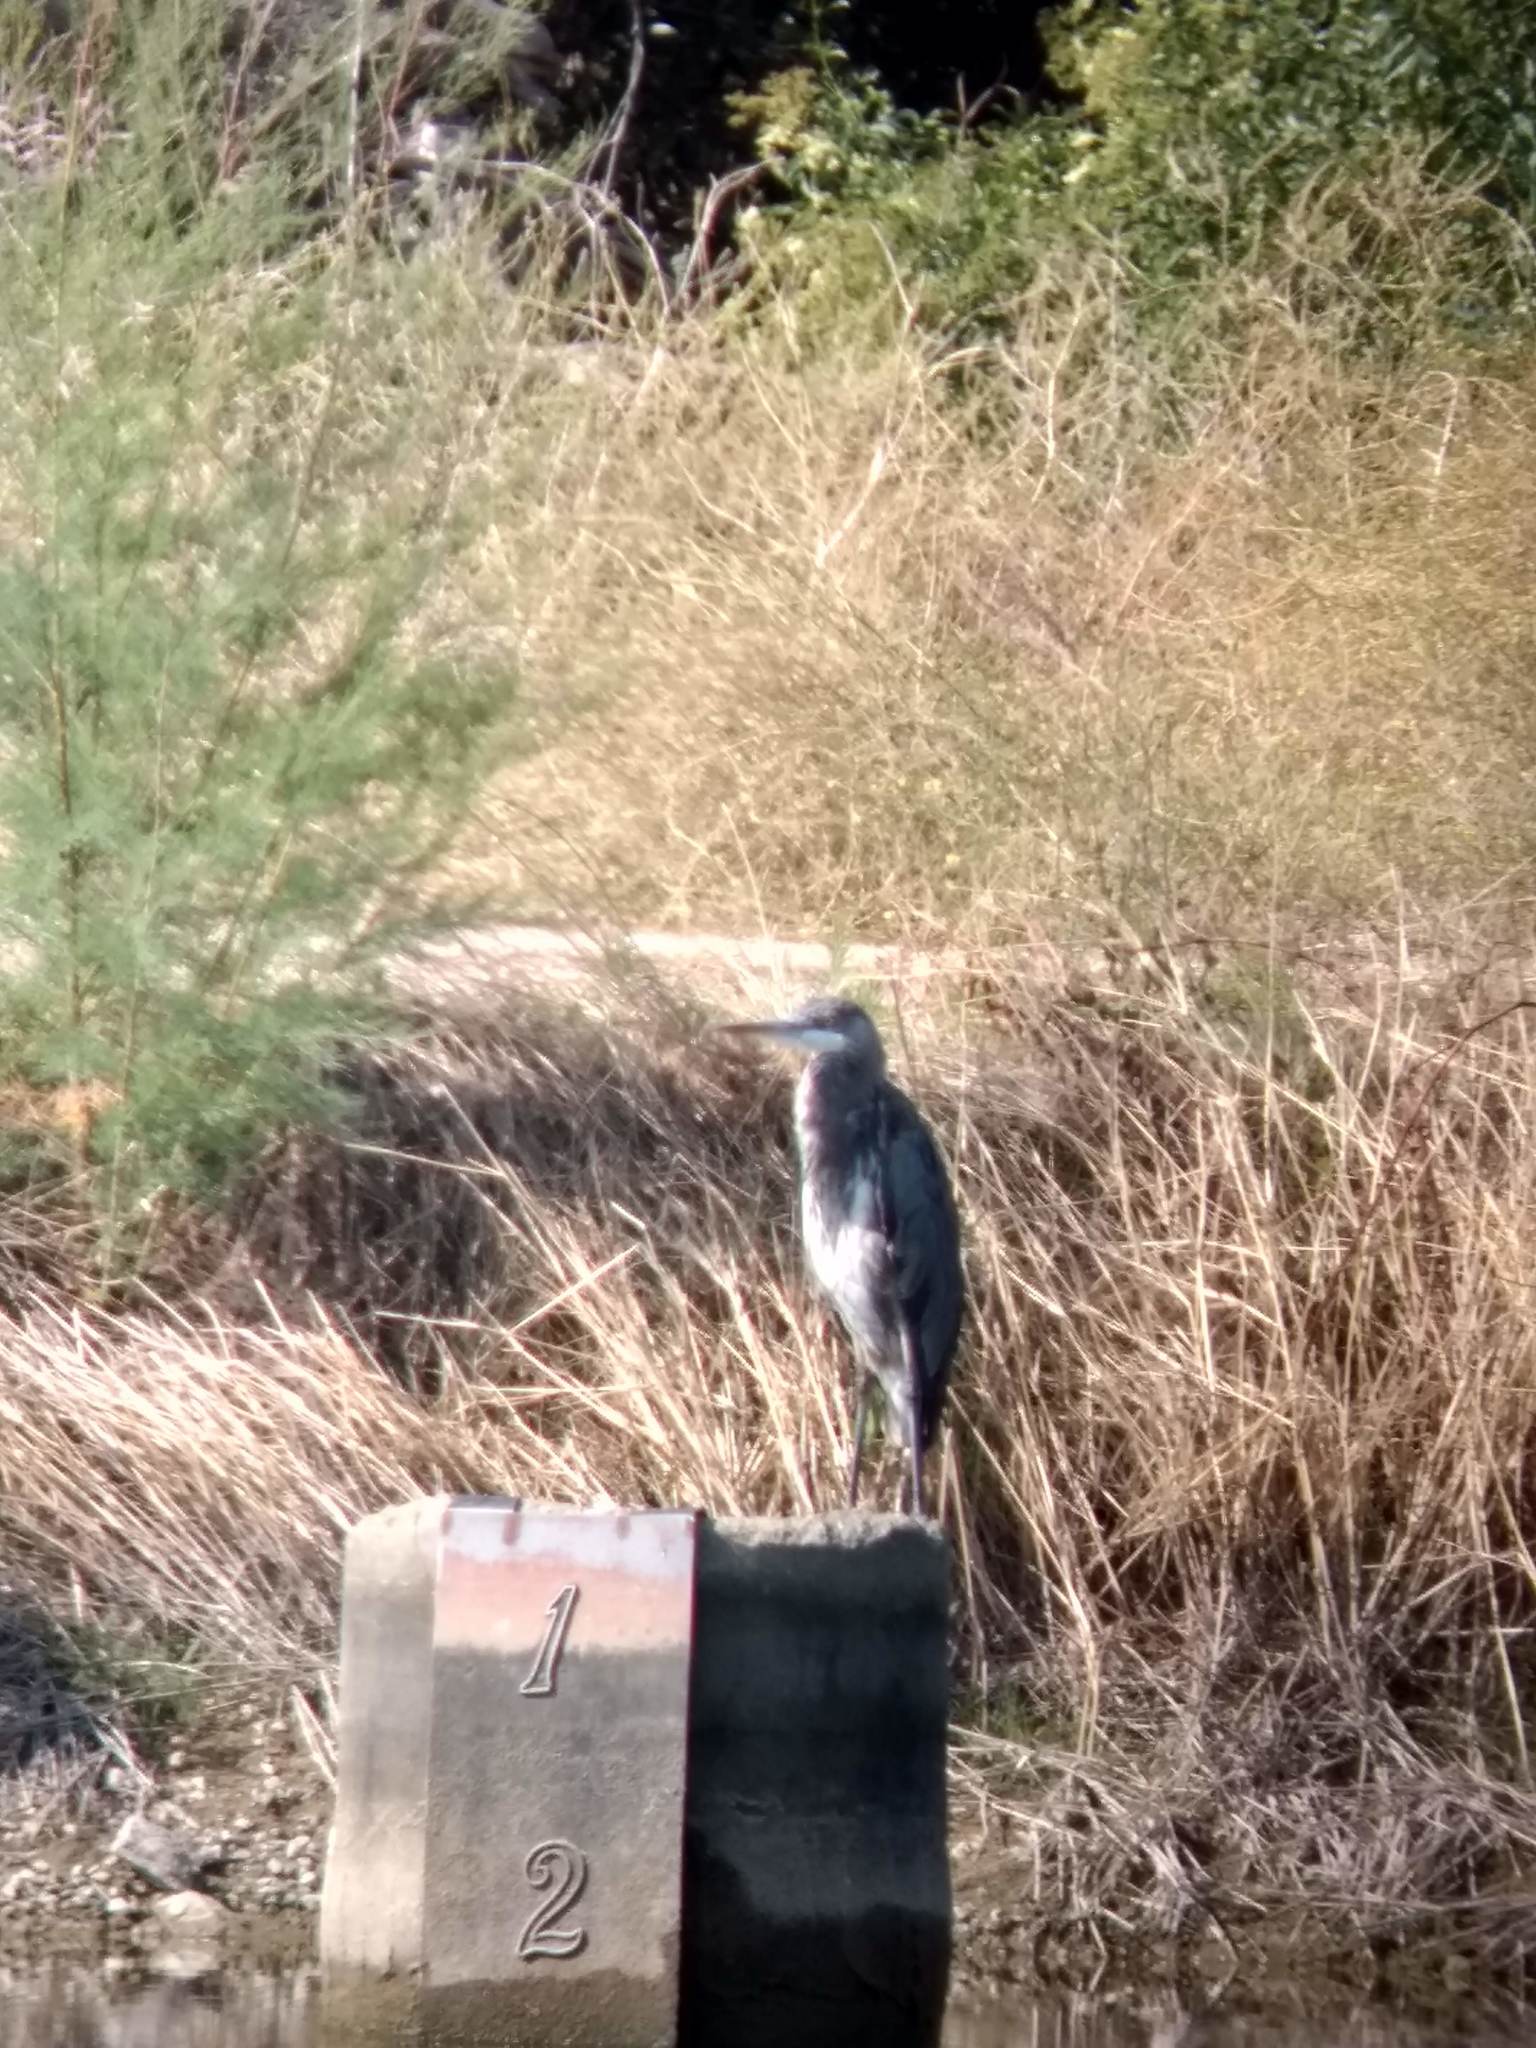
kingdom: Animalia
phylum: Chordata
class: Aves
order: Pelecaniformes
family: Ardeidae
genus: Ardea
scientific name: Ardea herodias
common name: Great blue heron
